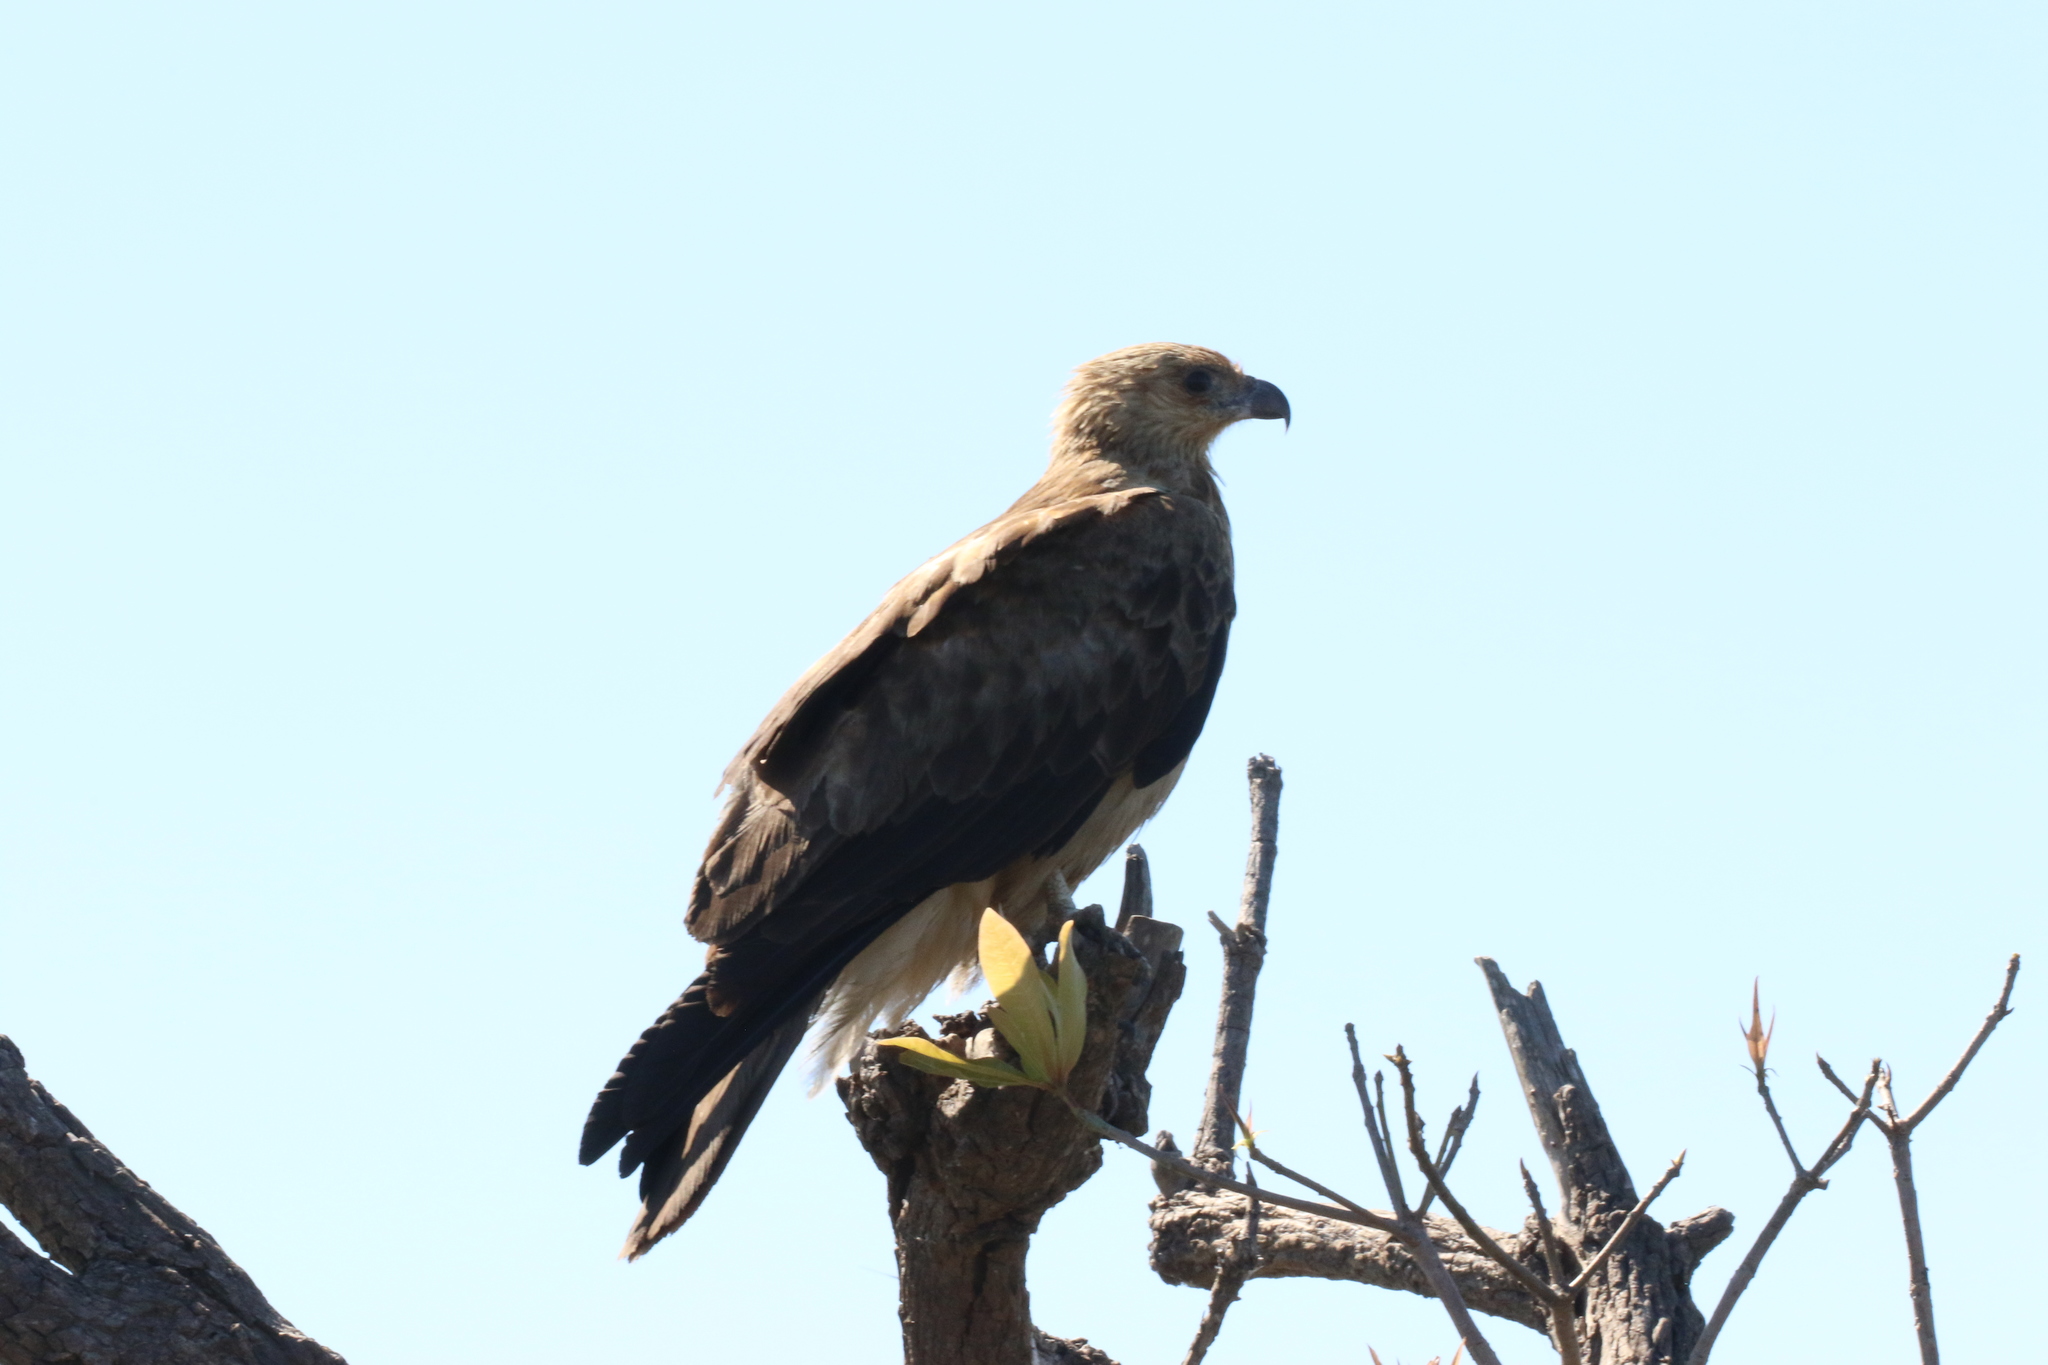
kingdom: Animalia
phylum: Chordata
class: Aves
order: Accipitriformes
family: Accipitridae
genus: Haliastur
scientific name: Haliastur sphenurus
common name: Whistling kite
